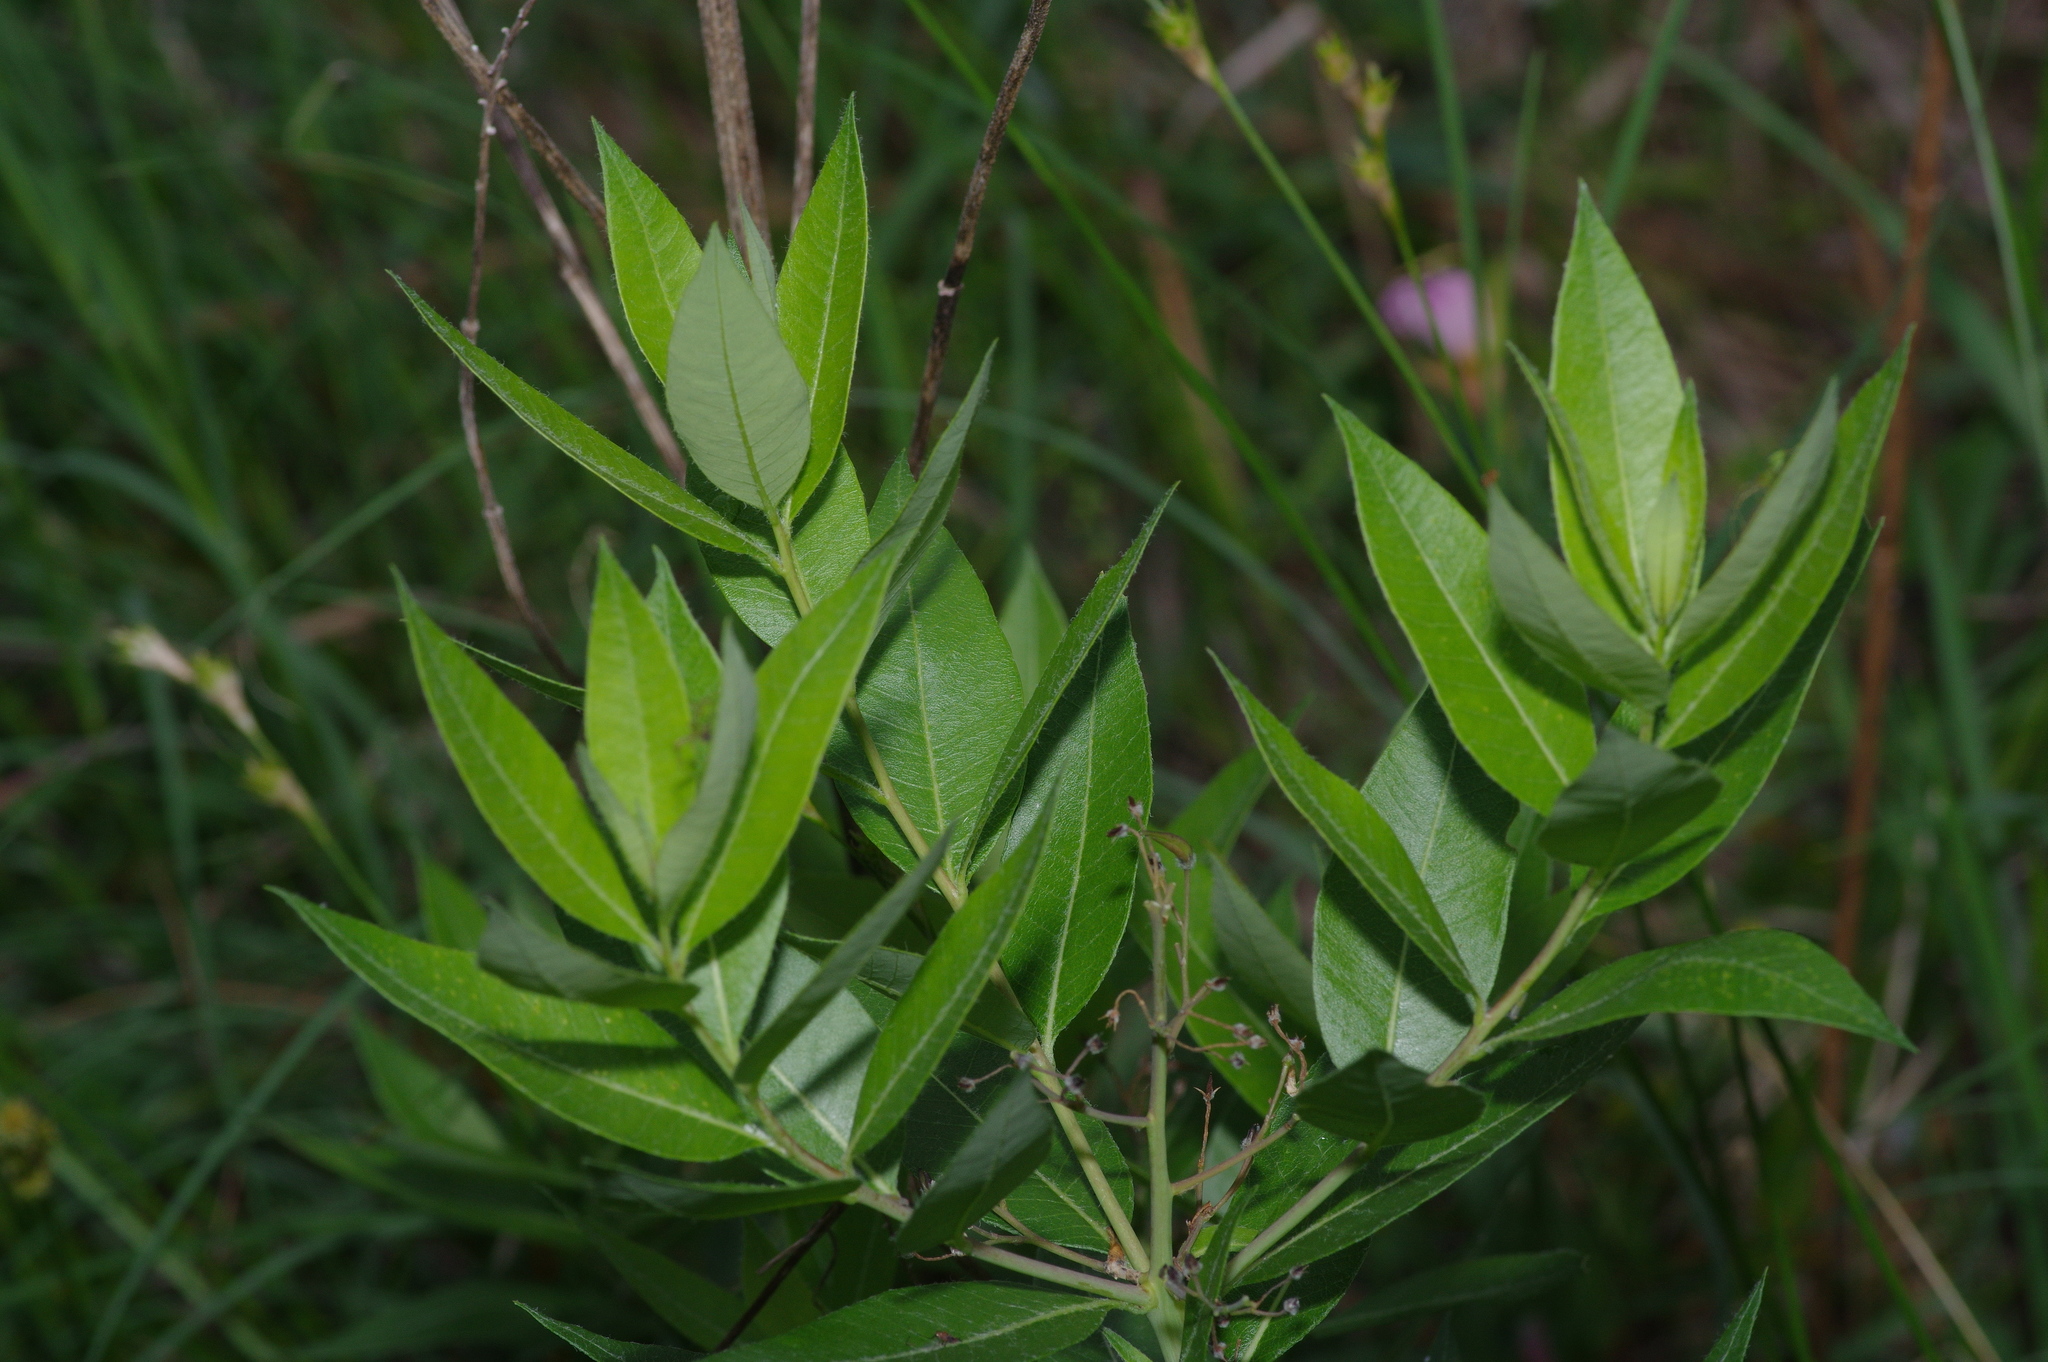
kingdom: Plantae
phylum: Tracheophyta
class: Magnoliopsida
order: Gentianales
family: Apocynaceae
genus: Amsonia
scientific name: Amsonia tabernaemontana
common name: Texas-star
